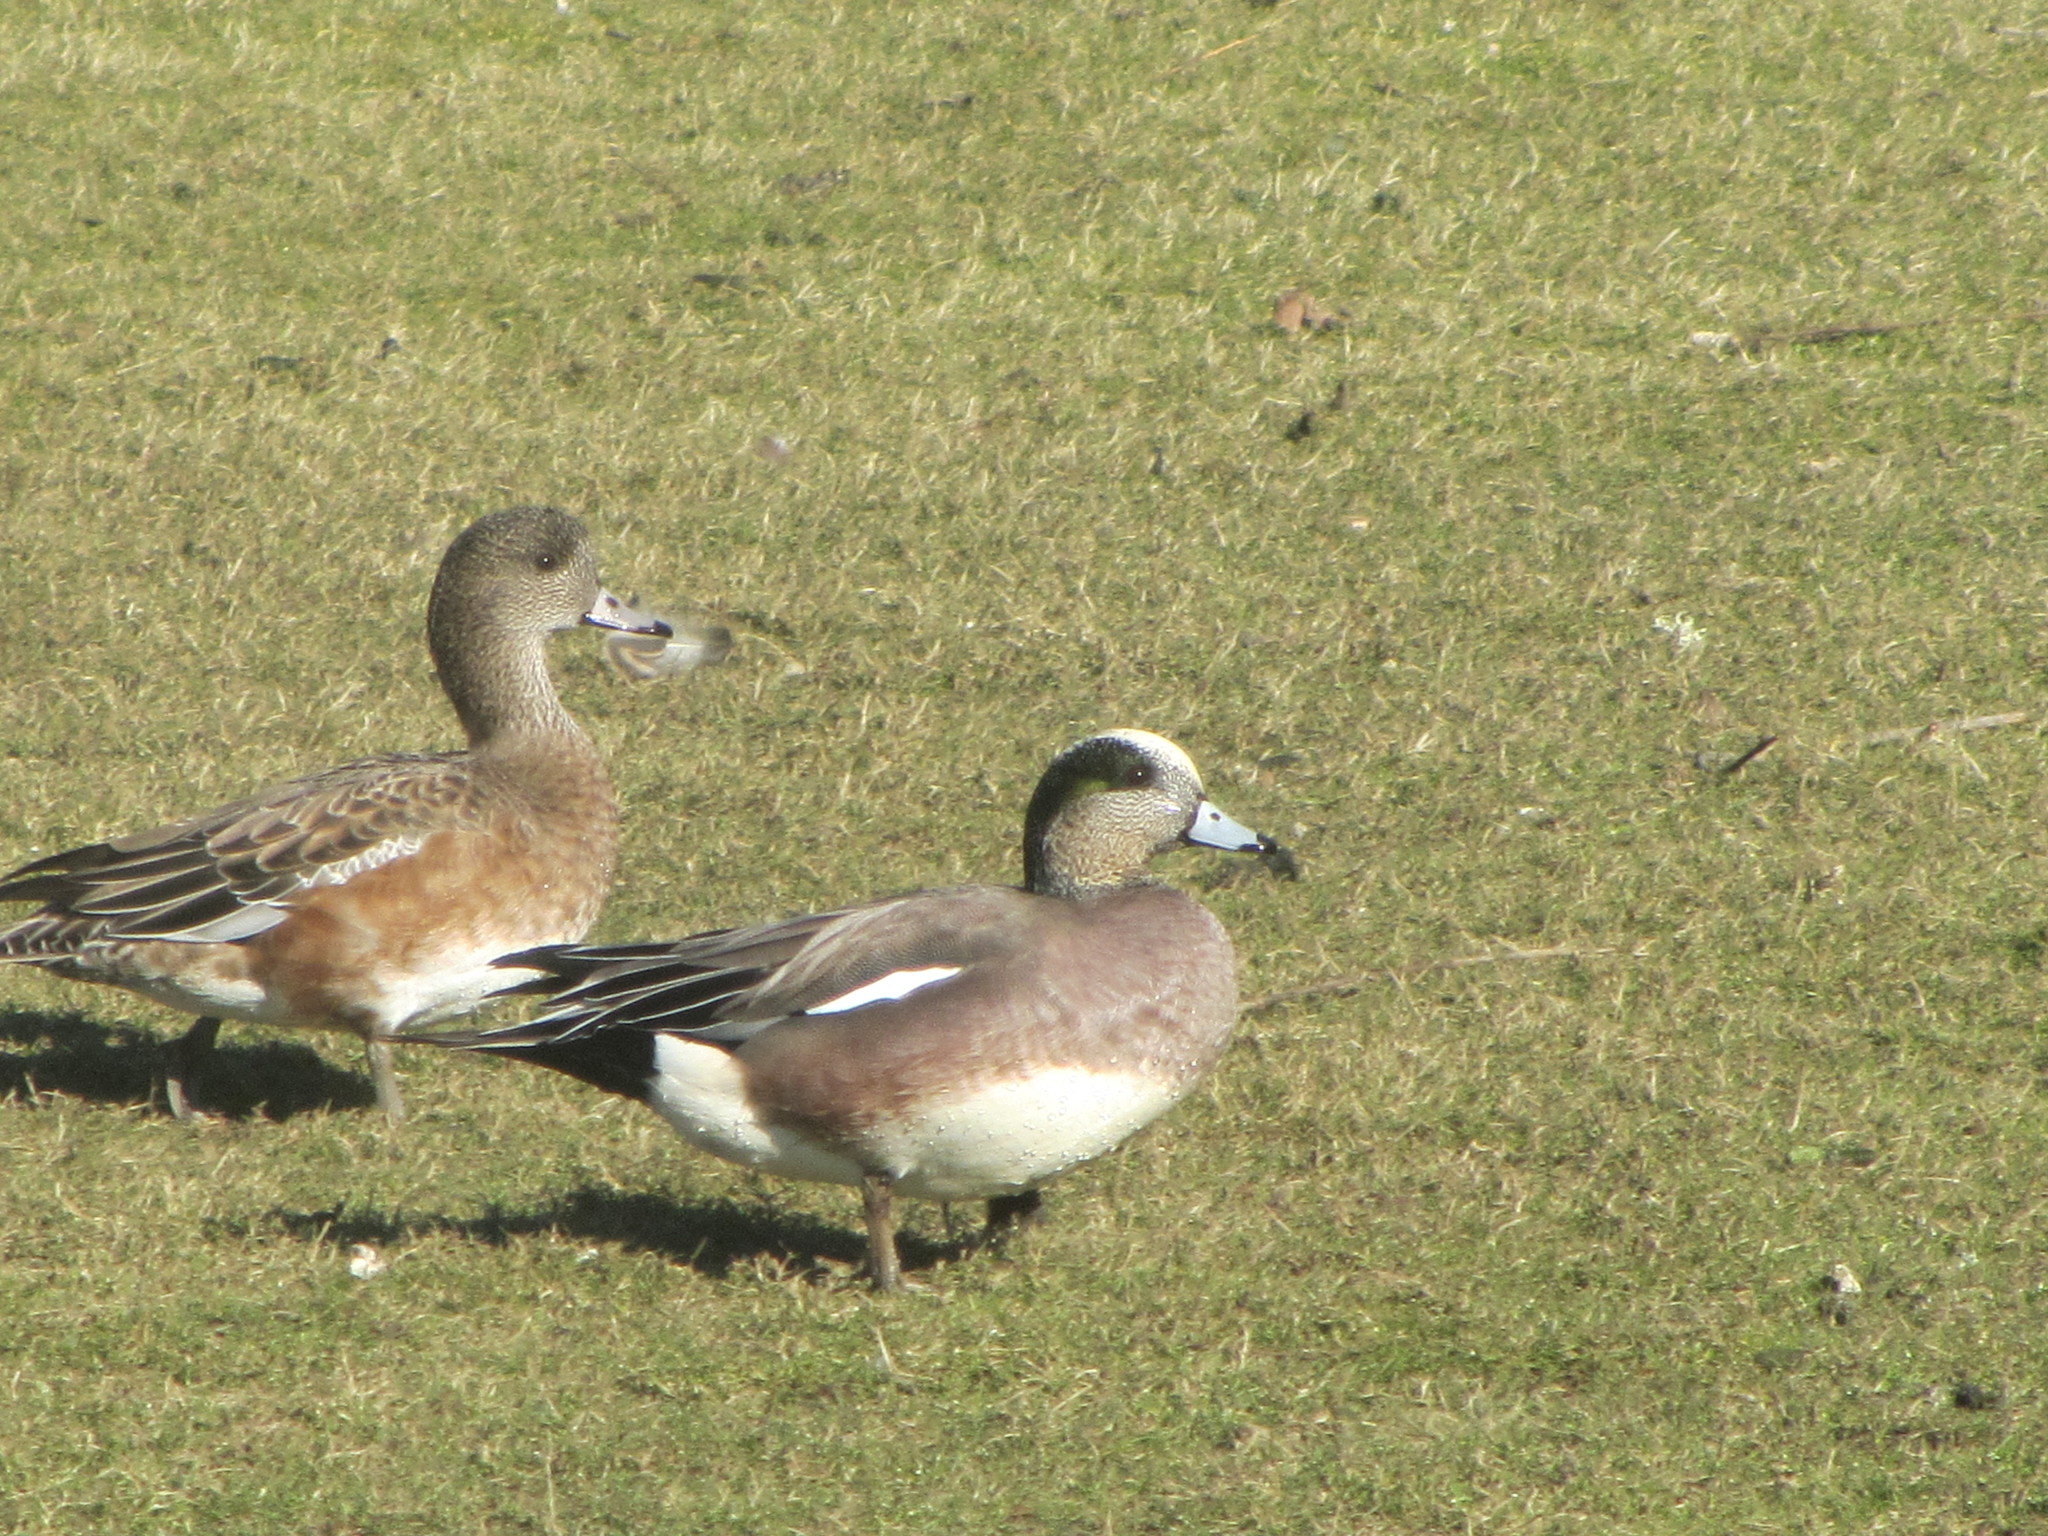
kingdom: Animalia
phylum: Chordata
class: Aves
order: Anseriformes
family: Anatidae
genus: Mareca
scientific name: Mareca americana
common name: American wigeon
